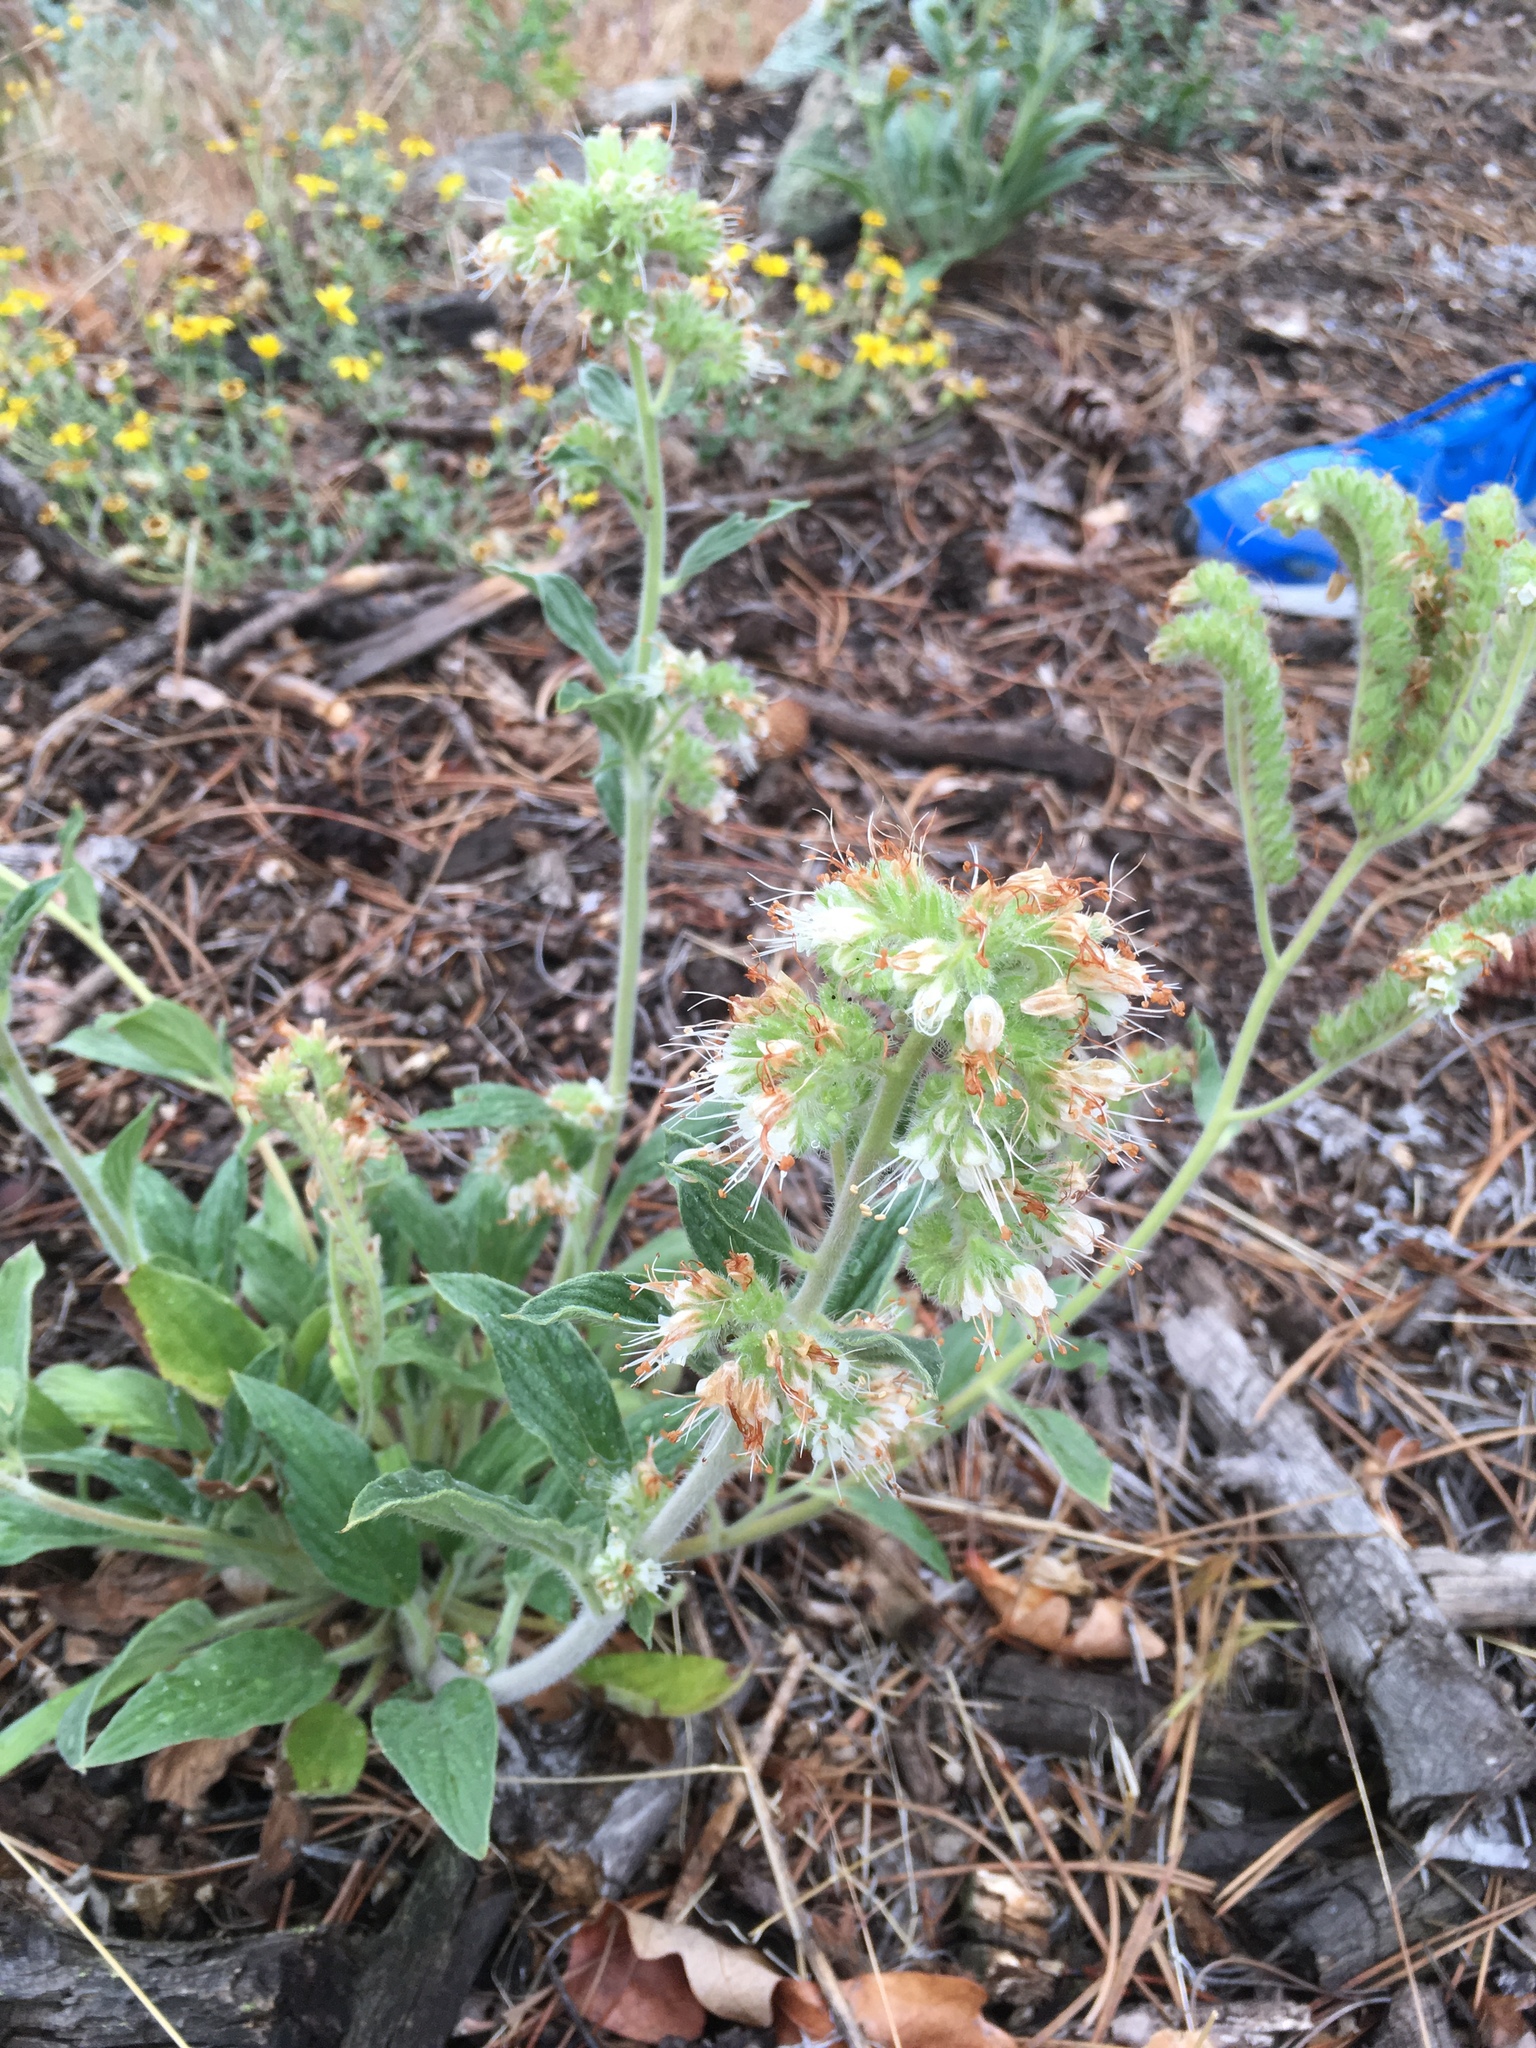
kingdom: Plantae
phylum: Tracheophyta
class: Magnoliopsida
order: Boraginales
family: Hydrophyllaceae
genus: Phacelia
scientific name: Phacelia heterophylla
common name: Variable-leaved phacelia
